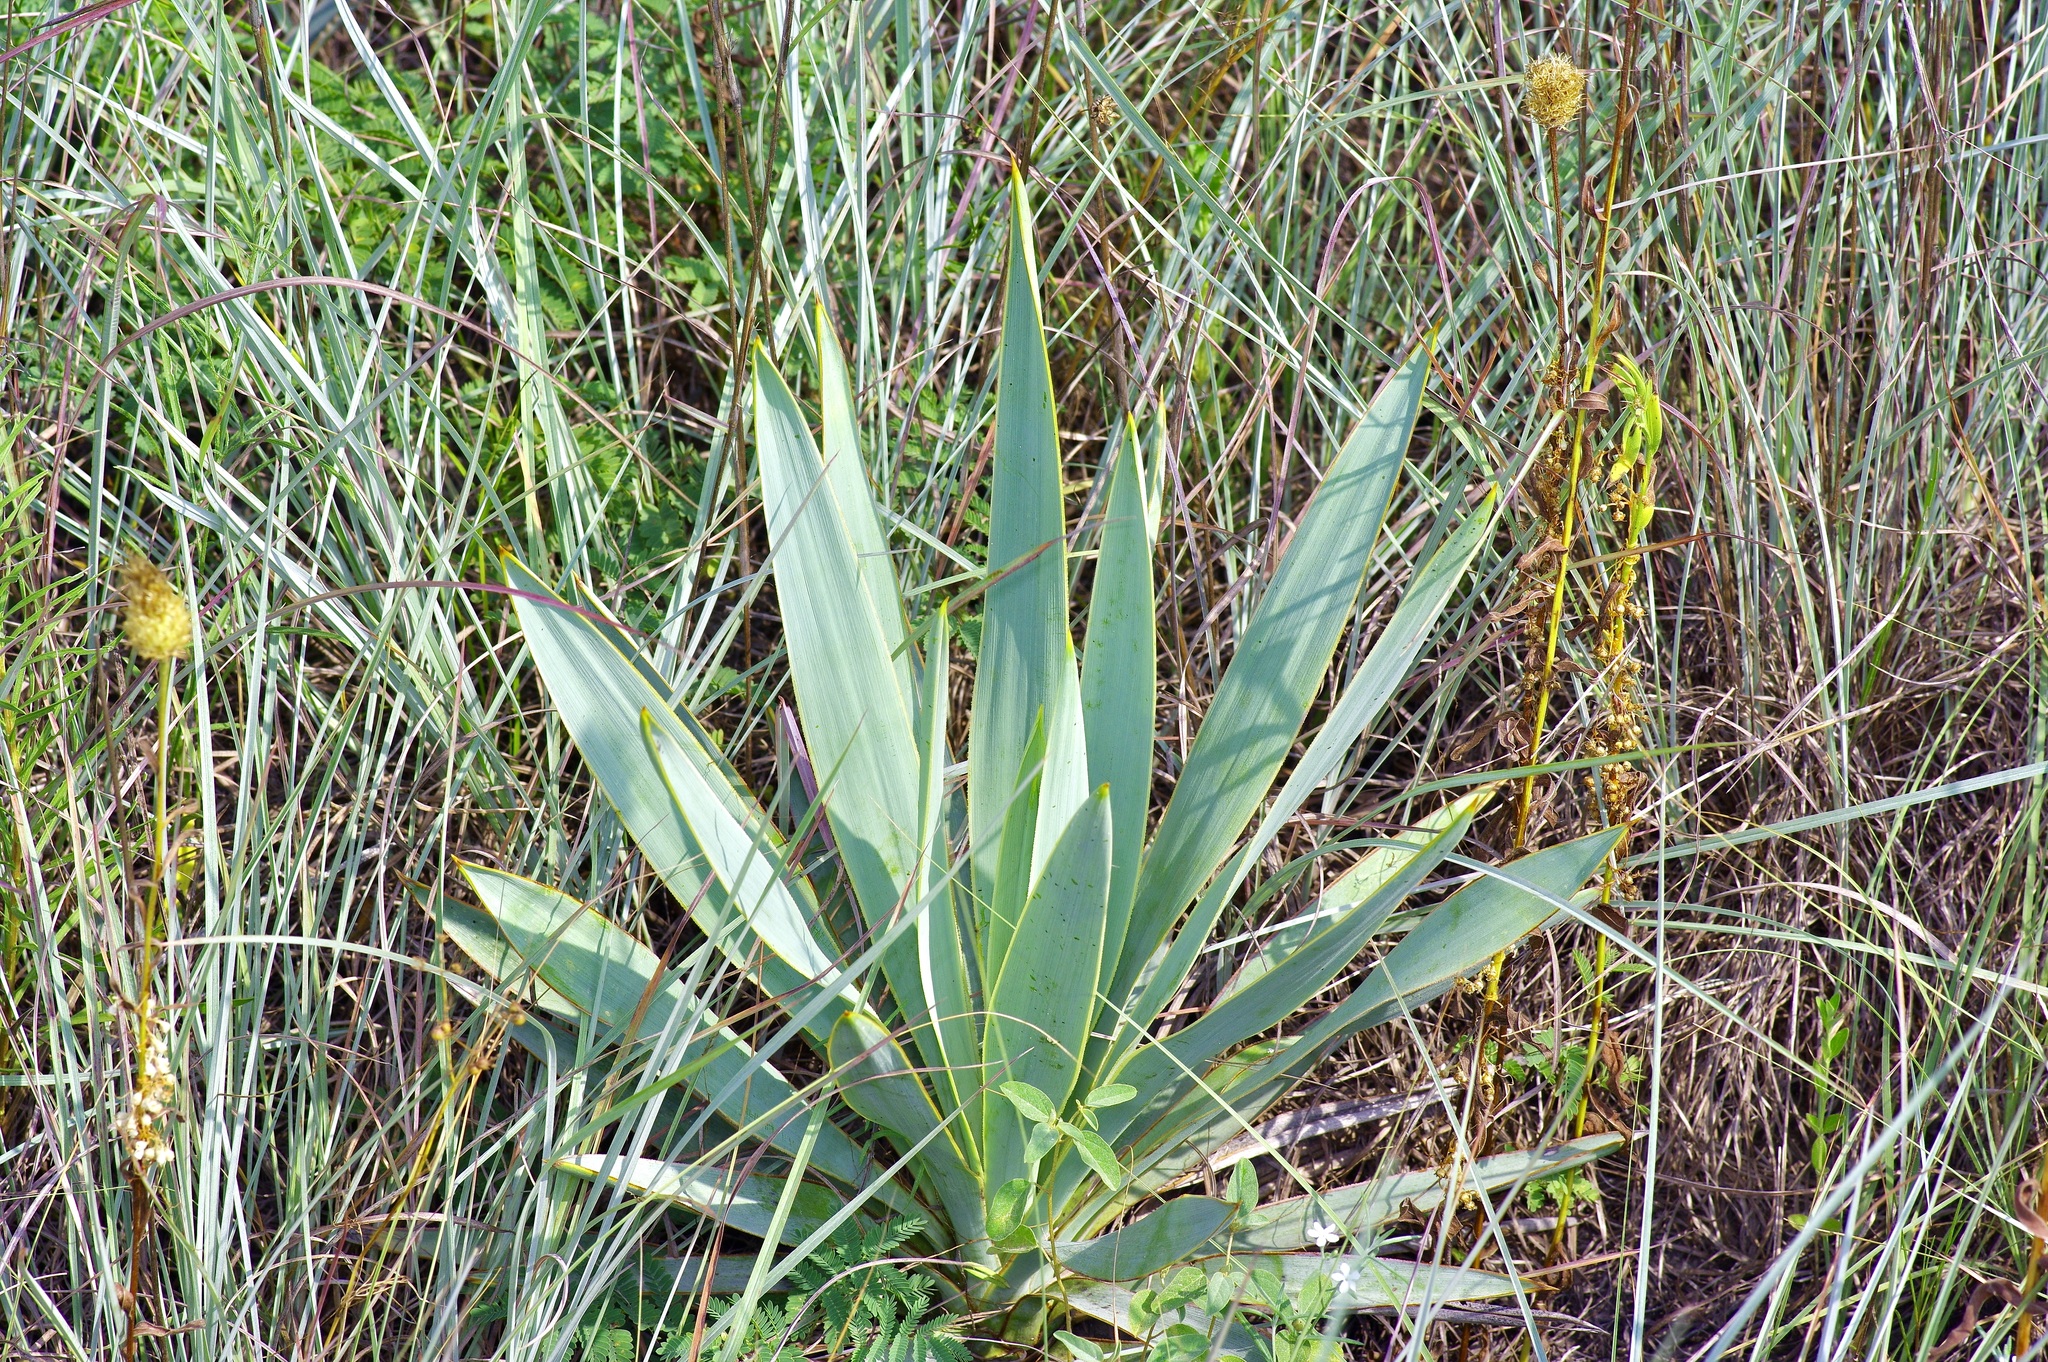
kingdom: Plantae
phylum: Tracheophyta
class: Liliopsida
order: Asparagales
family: Asparagaceae
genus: Yucca
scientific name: Yucca pallida
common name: Pale leaf yucca
